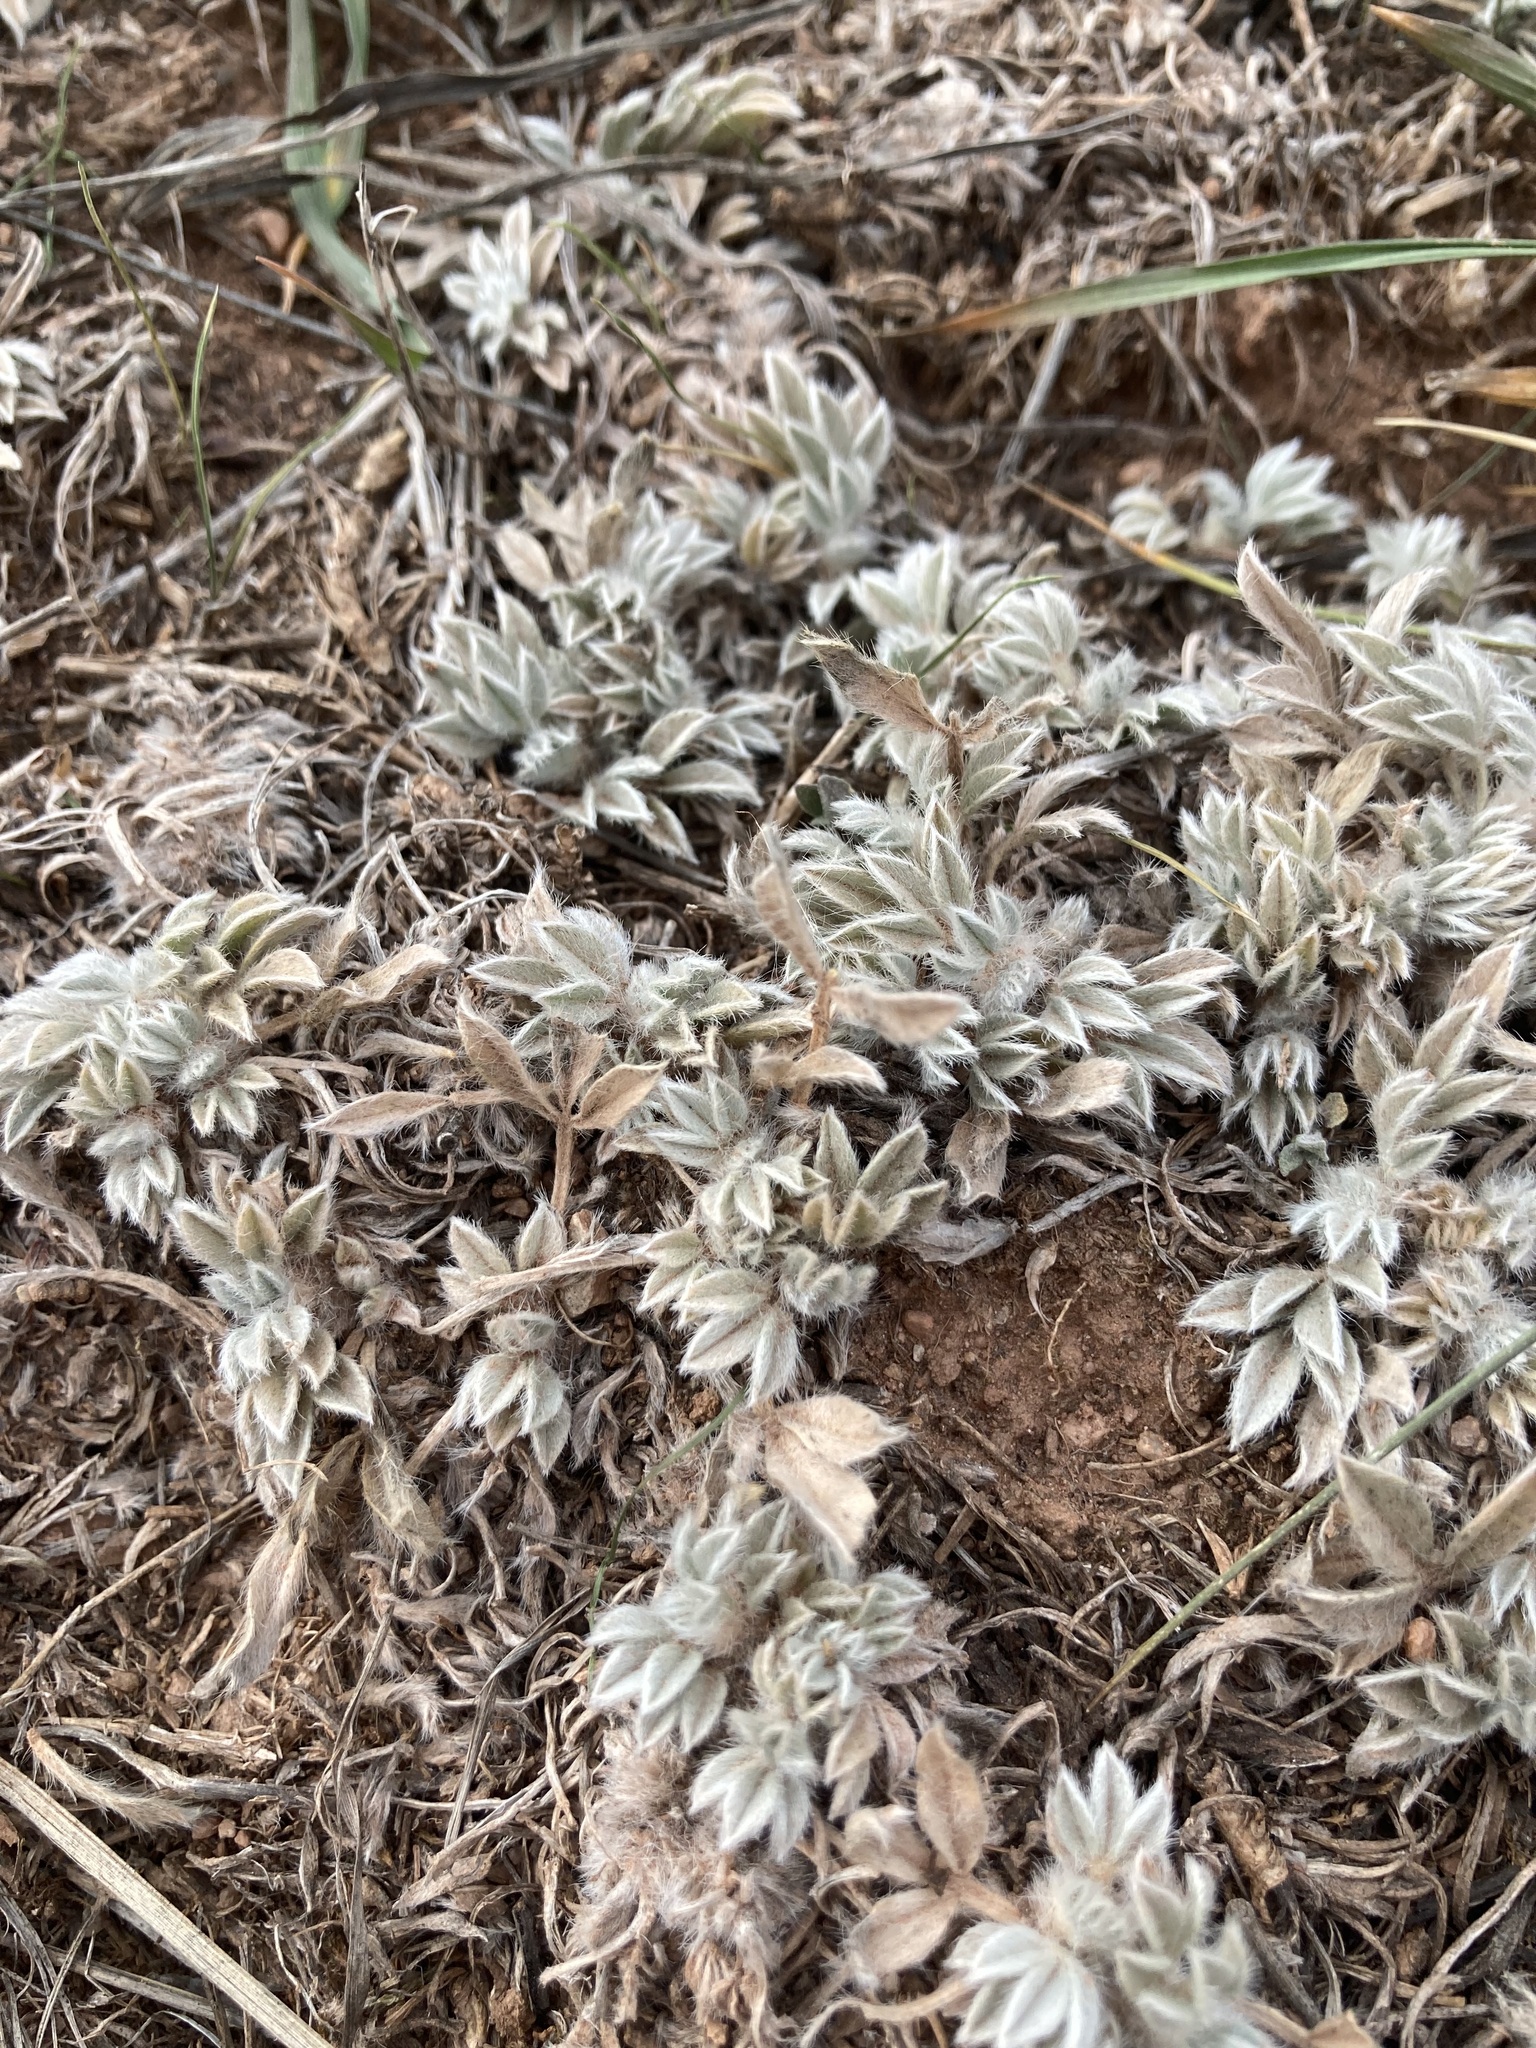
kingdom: Plantae
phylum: Tracheophyta
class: Magnoliopsida
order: Fabales
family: Fabaceae
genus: Astragalus
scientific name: Astragalus tridactylicus
